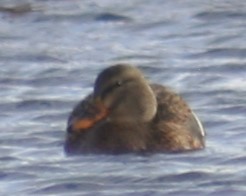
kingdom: Animalia
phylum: Chordata
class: Aves
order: Anseriformes
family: Anatidae
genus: Anas
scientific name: Anas platyrhynchos
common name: Mallard
